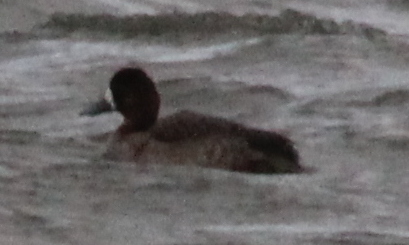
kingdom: Animalia
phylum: Chordata
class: Aves
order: Anseriformes
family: Anatidae
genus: Aythya
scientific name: Aythya affinis
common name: Lesser scaup
